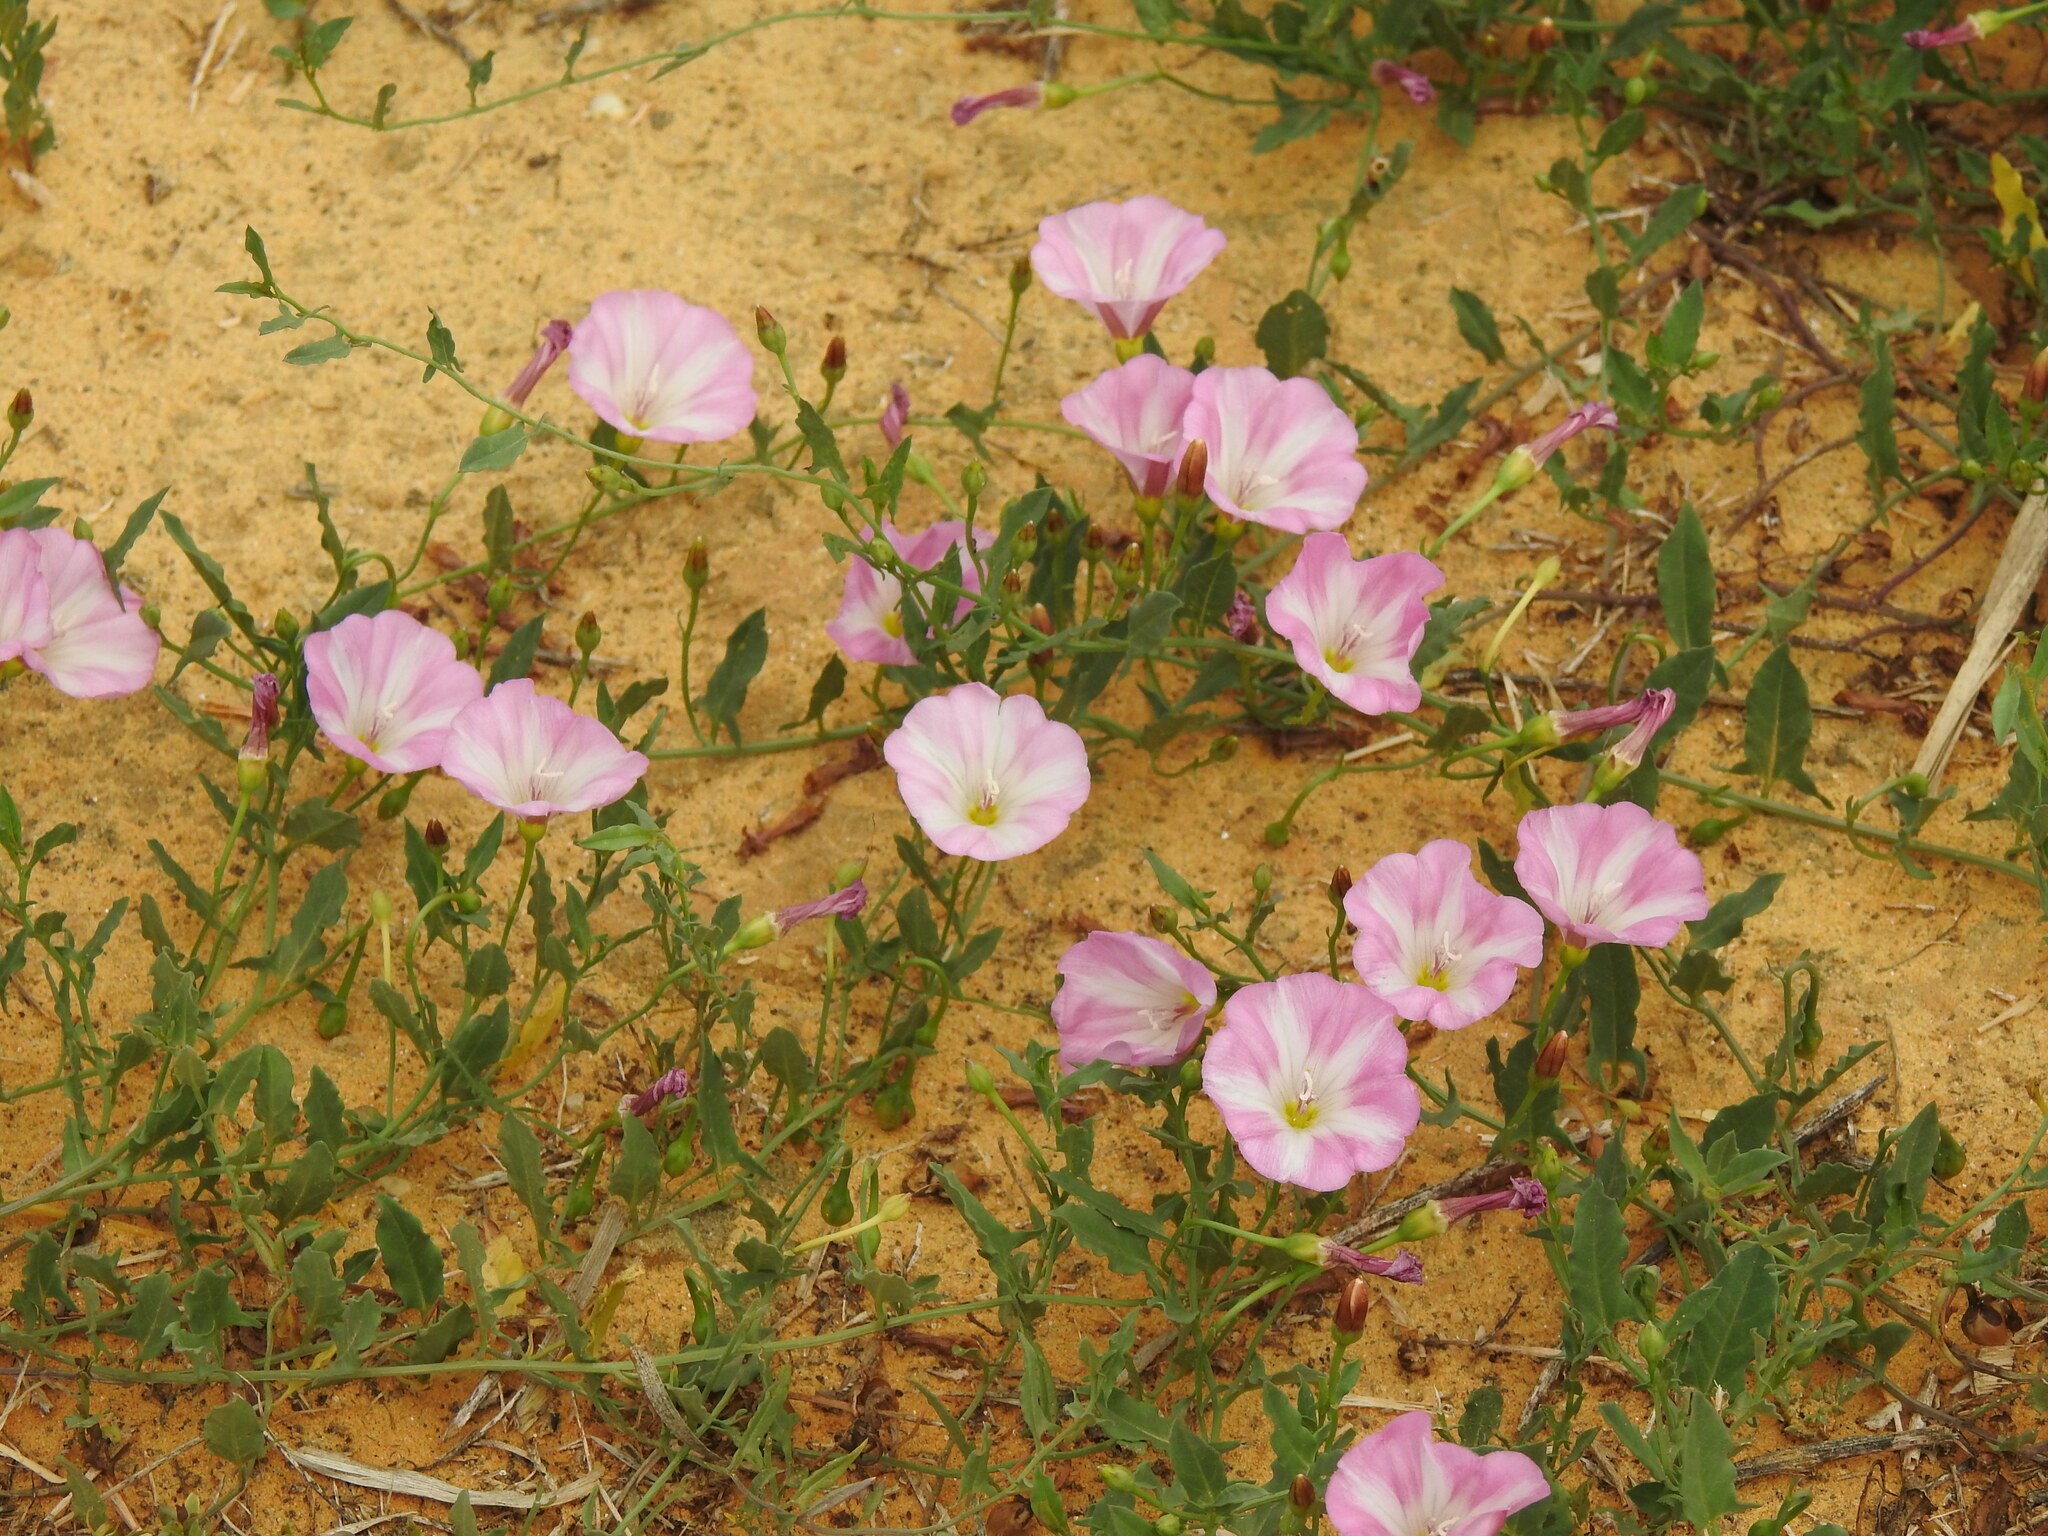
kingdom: Plantae
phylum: Tracheophyta
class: Magnoliopsida
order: Solanales
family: Convolvulaceae
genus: Convolvulus
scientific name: Convolvulus arvensis
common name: Field bindweed
